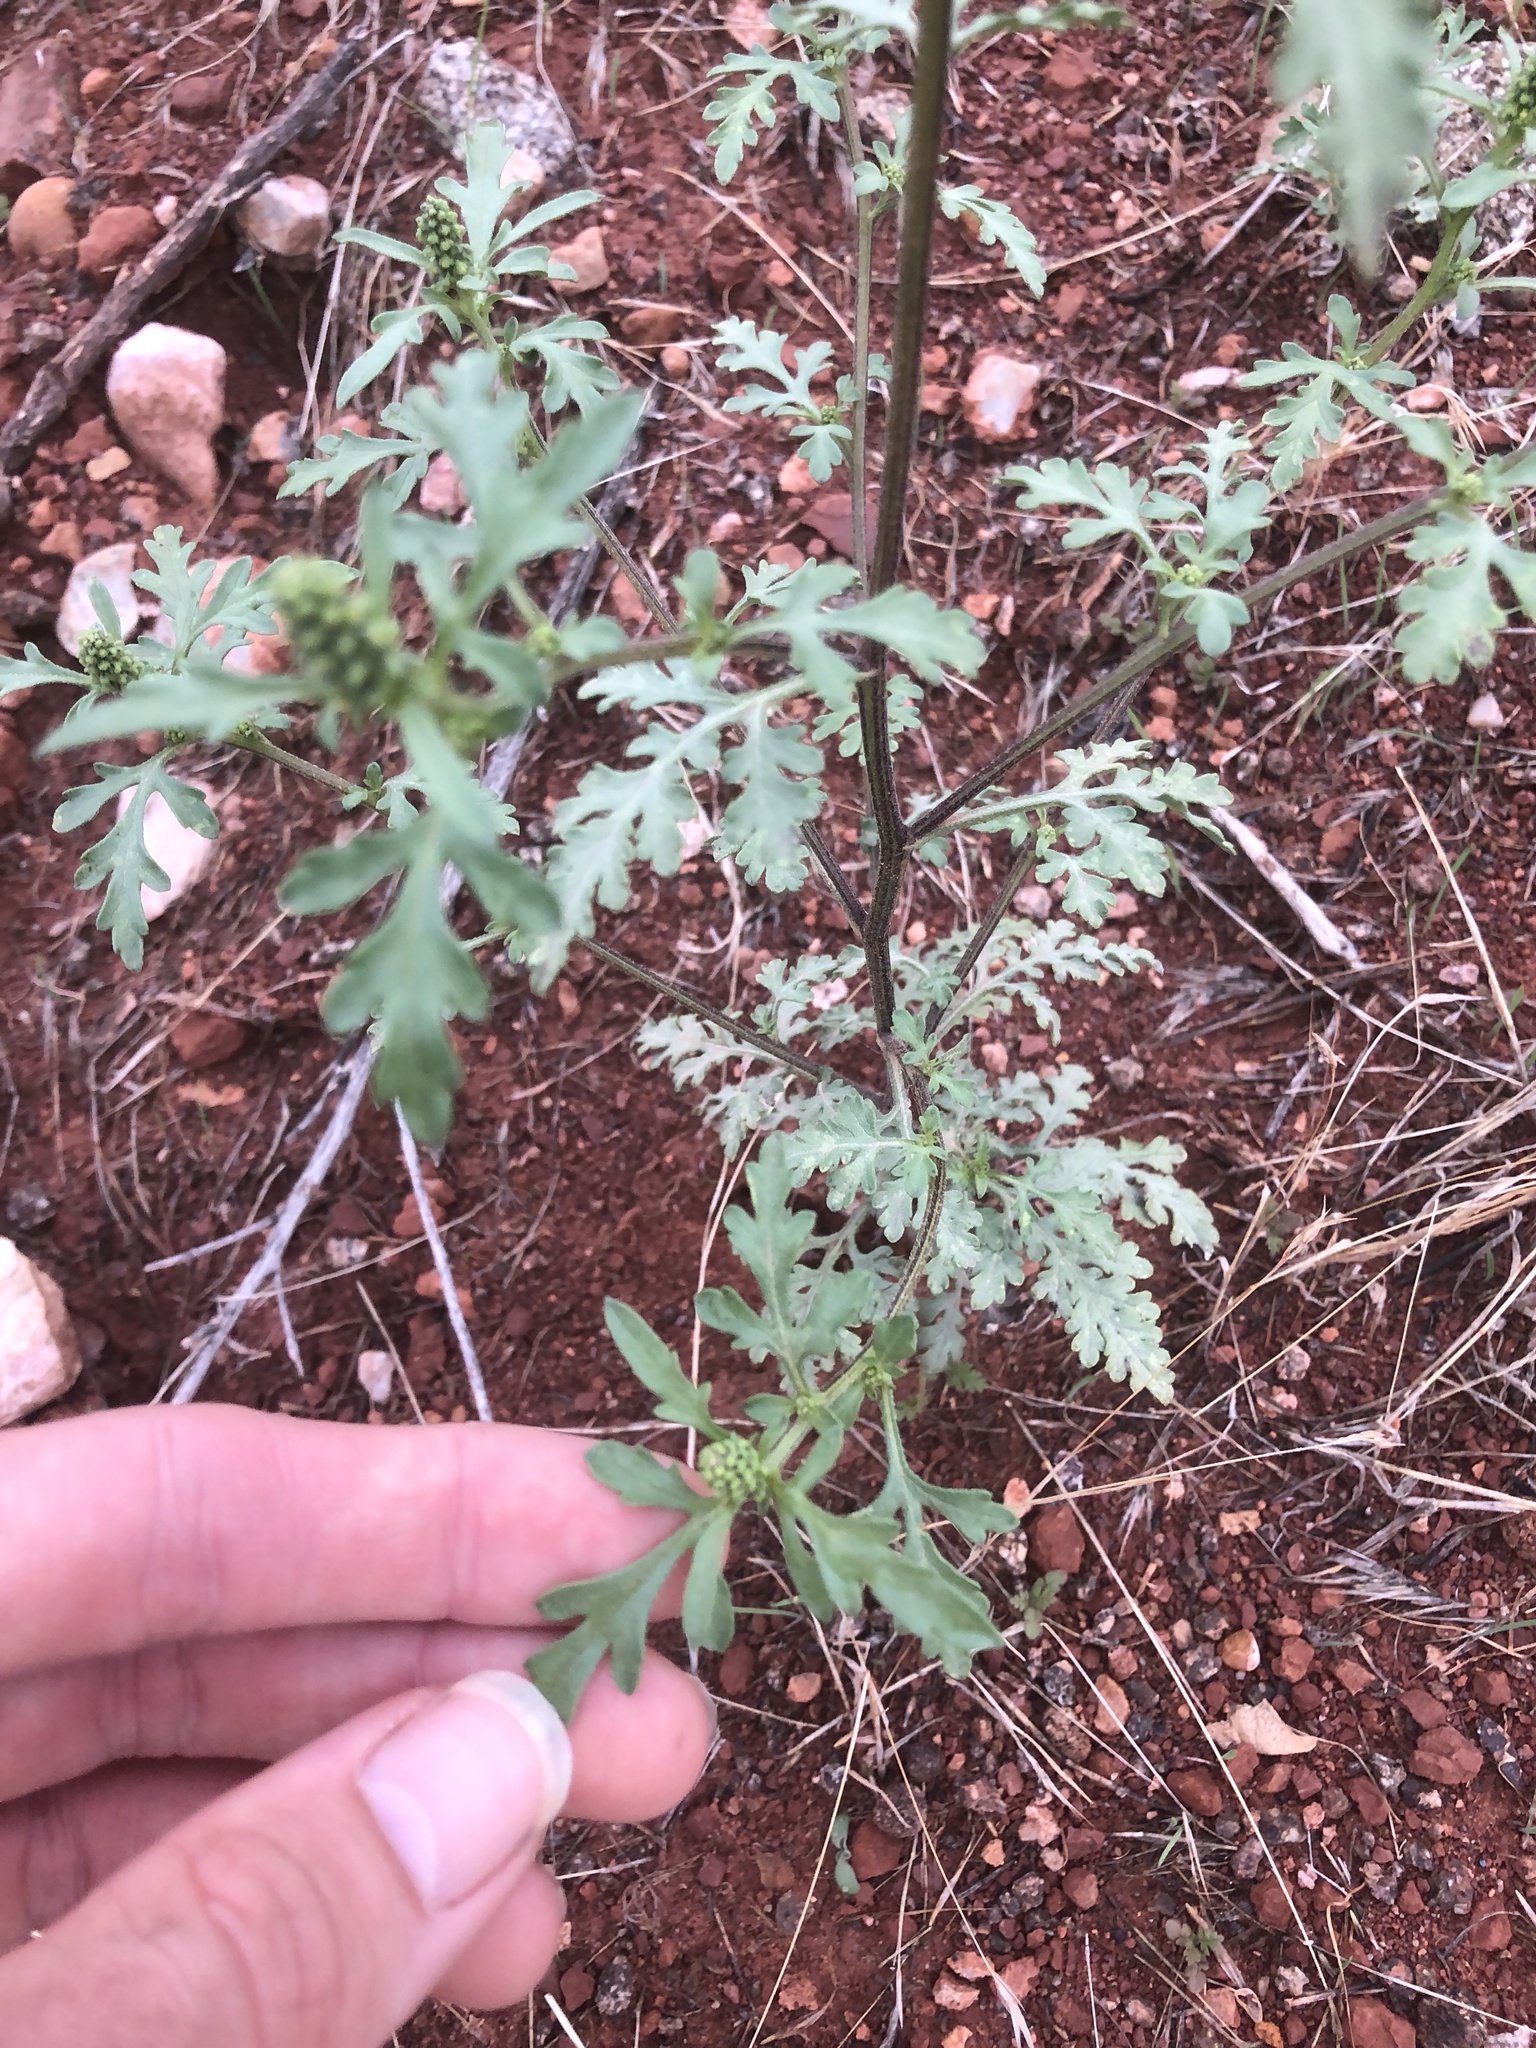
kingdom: Plantae
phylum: Tracheophyta
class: Magnoliopsida
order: Asterales
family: Asteraceae
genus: Ambrosia
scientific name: Ambrosia acanthicarpa
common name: Hooker's bur ragweed
